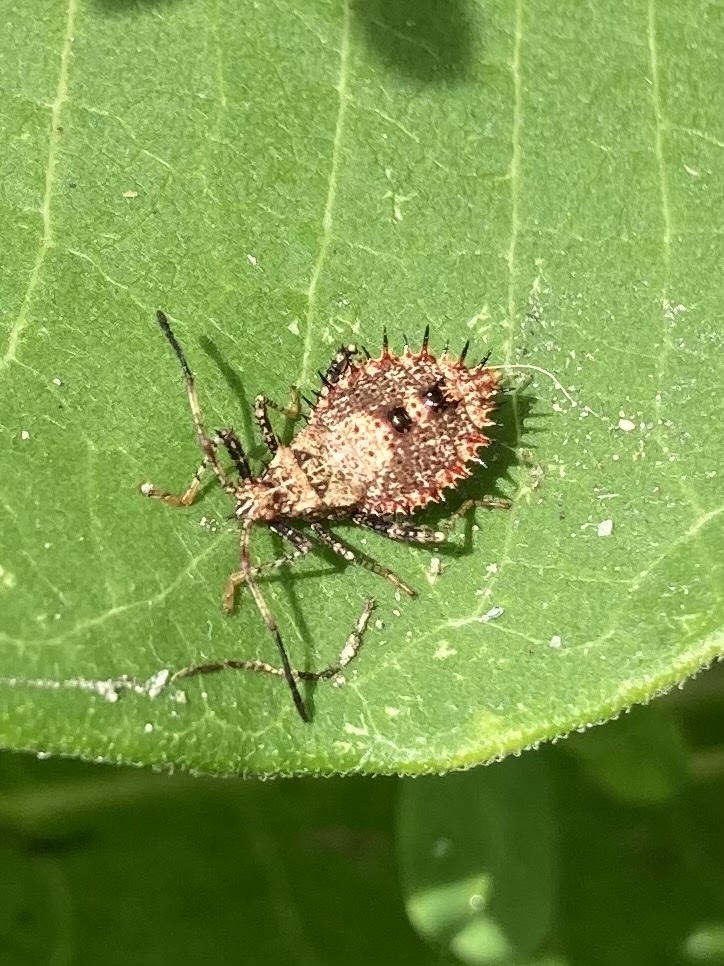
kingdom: Animalia
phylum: Arthropoda
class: Insecta
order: Hemiptera
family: Coreidae
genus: Euthochtha
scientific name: Euthochtha galeator
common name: Helmeted squash bug
